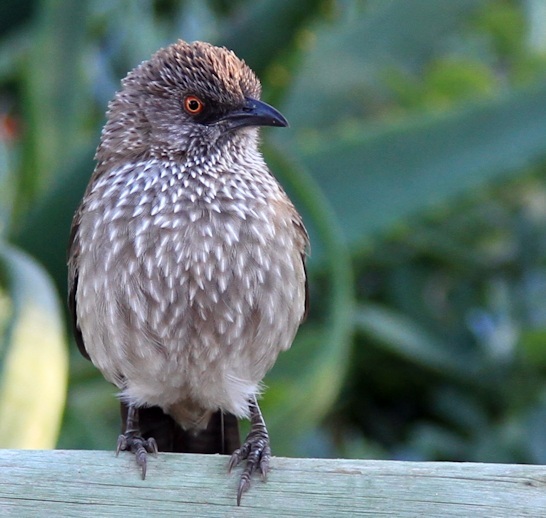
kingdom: Animalia
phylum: Chordata
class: Aves
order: Passeriformes
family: Leiothrichidae
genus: Turdoides
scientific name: Turdoides jardineii
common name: Arrow-marked babbler
